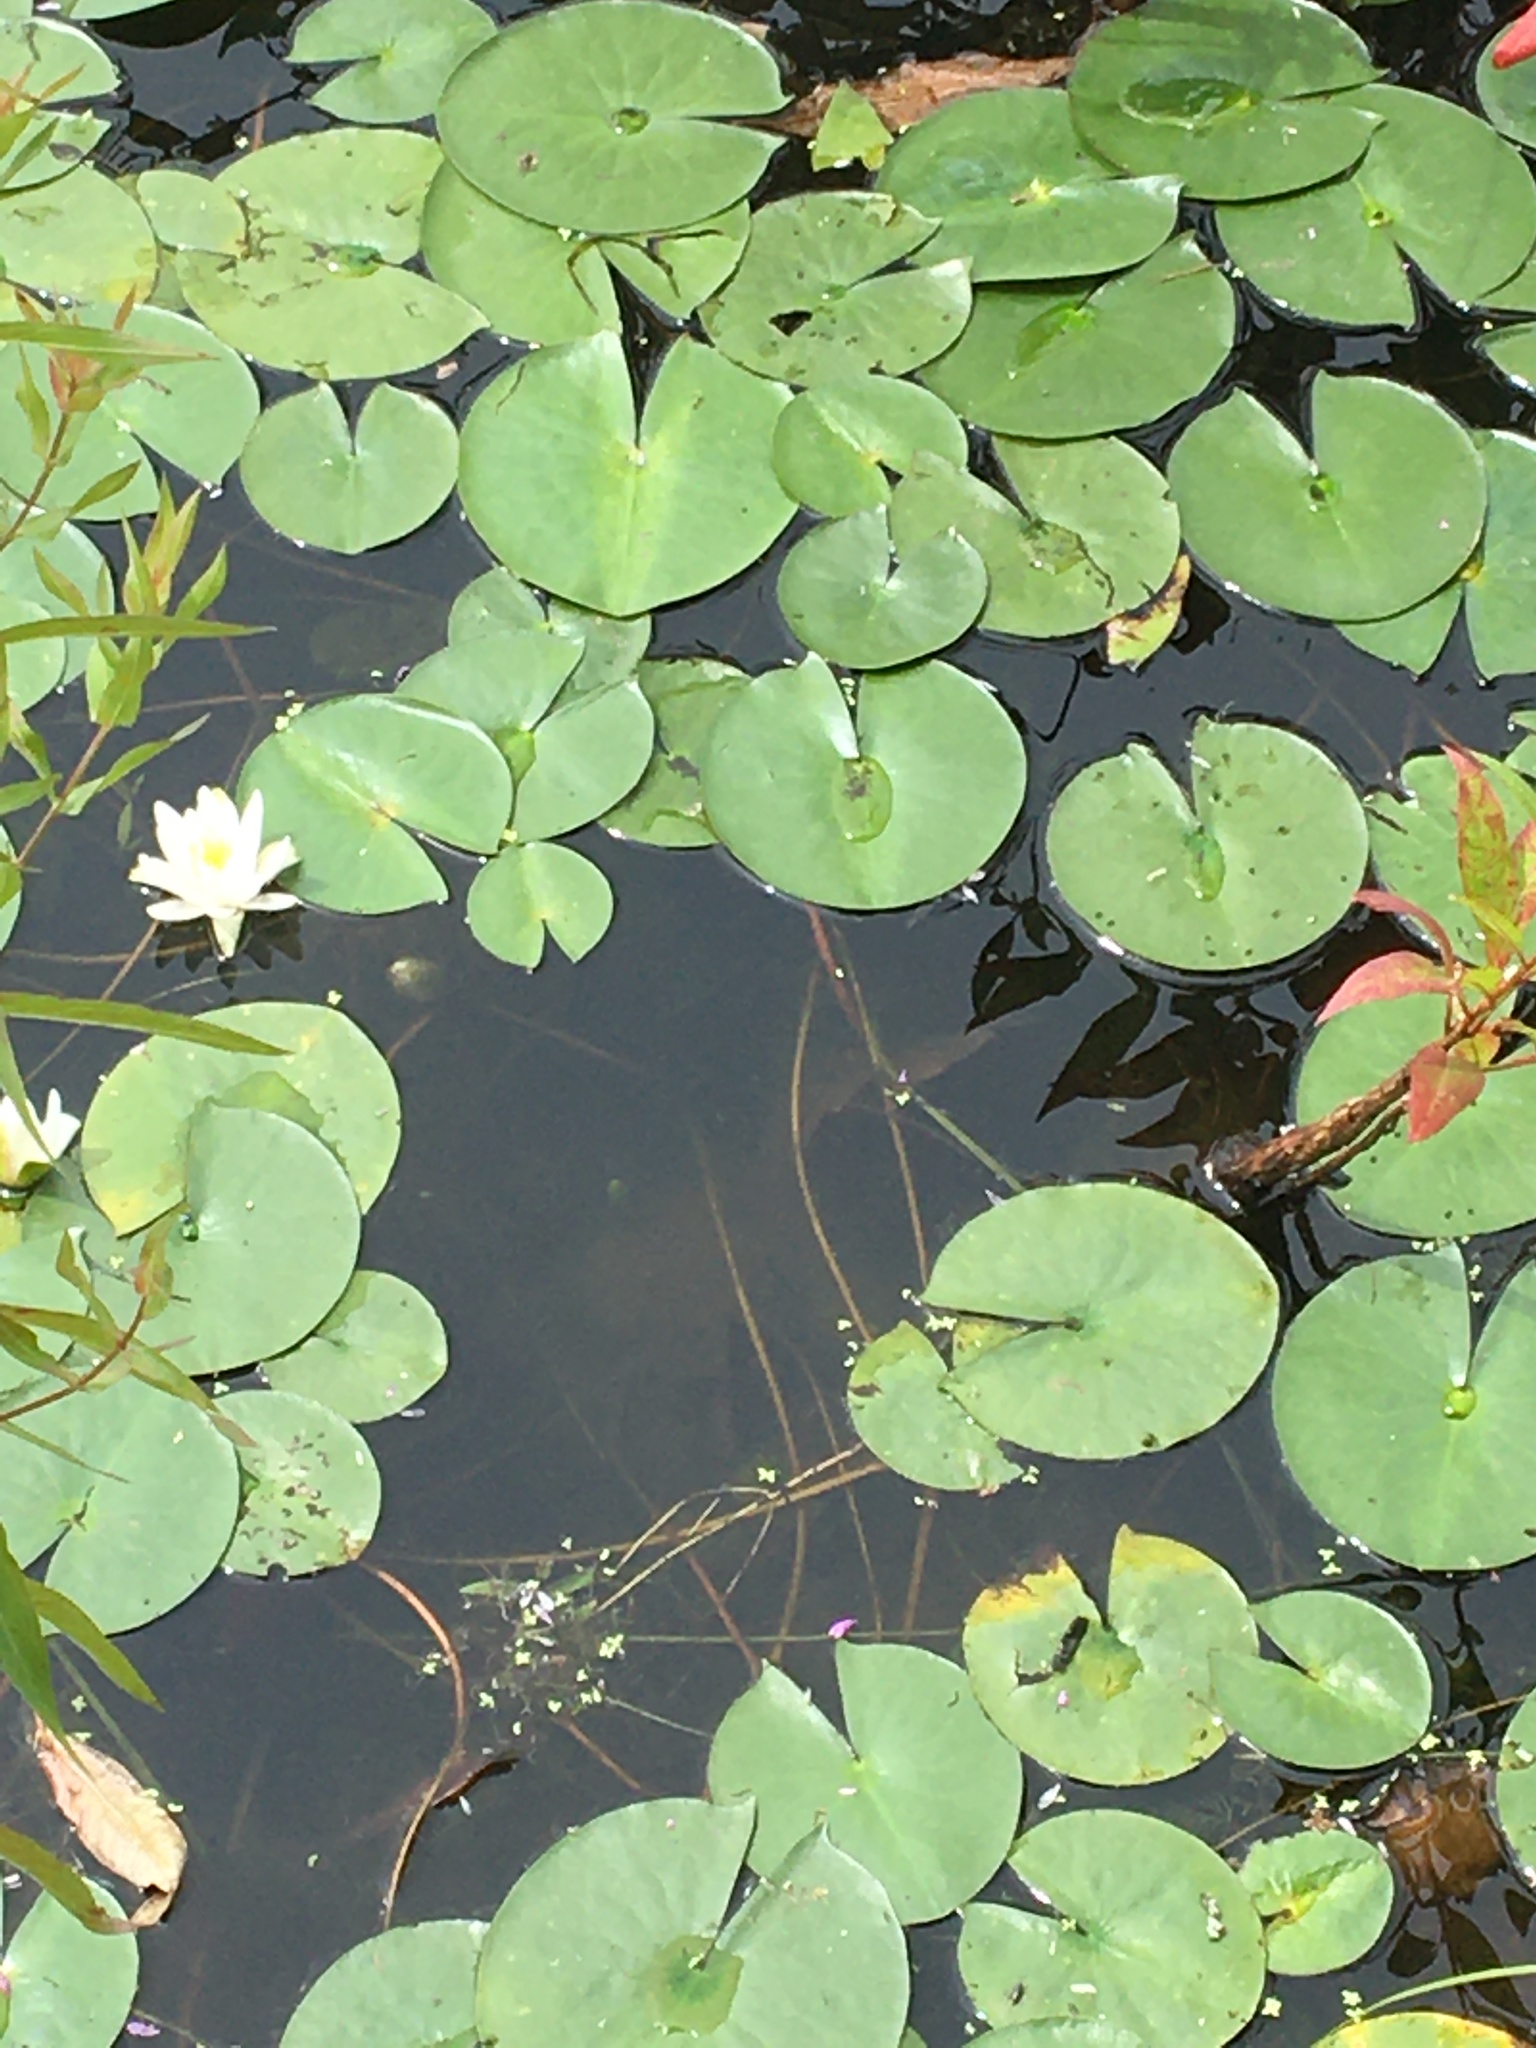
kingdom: Plantae
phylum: Tracheophyta
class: Magnoliopsida
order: Nymphaeales
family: Nymphaeaceae
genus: Nymphaea
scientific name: Nymphaea odorata
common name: Fragrant water-lily
